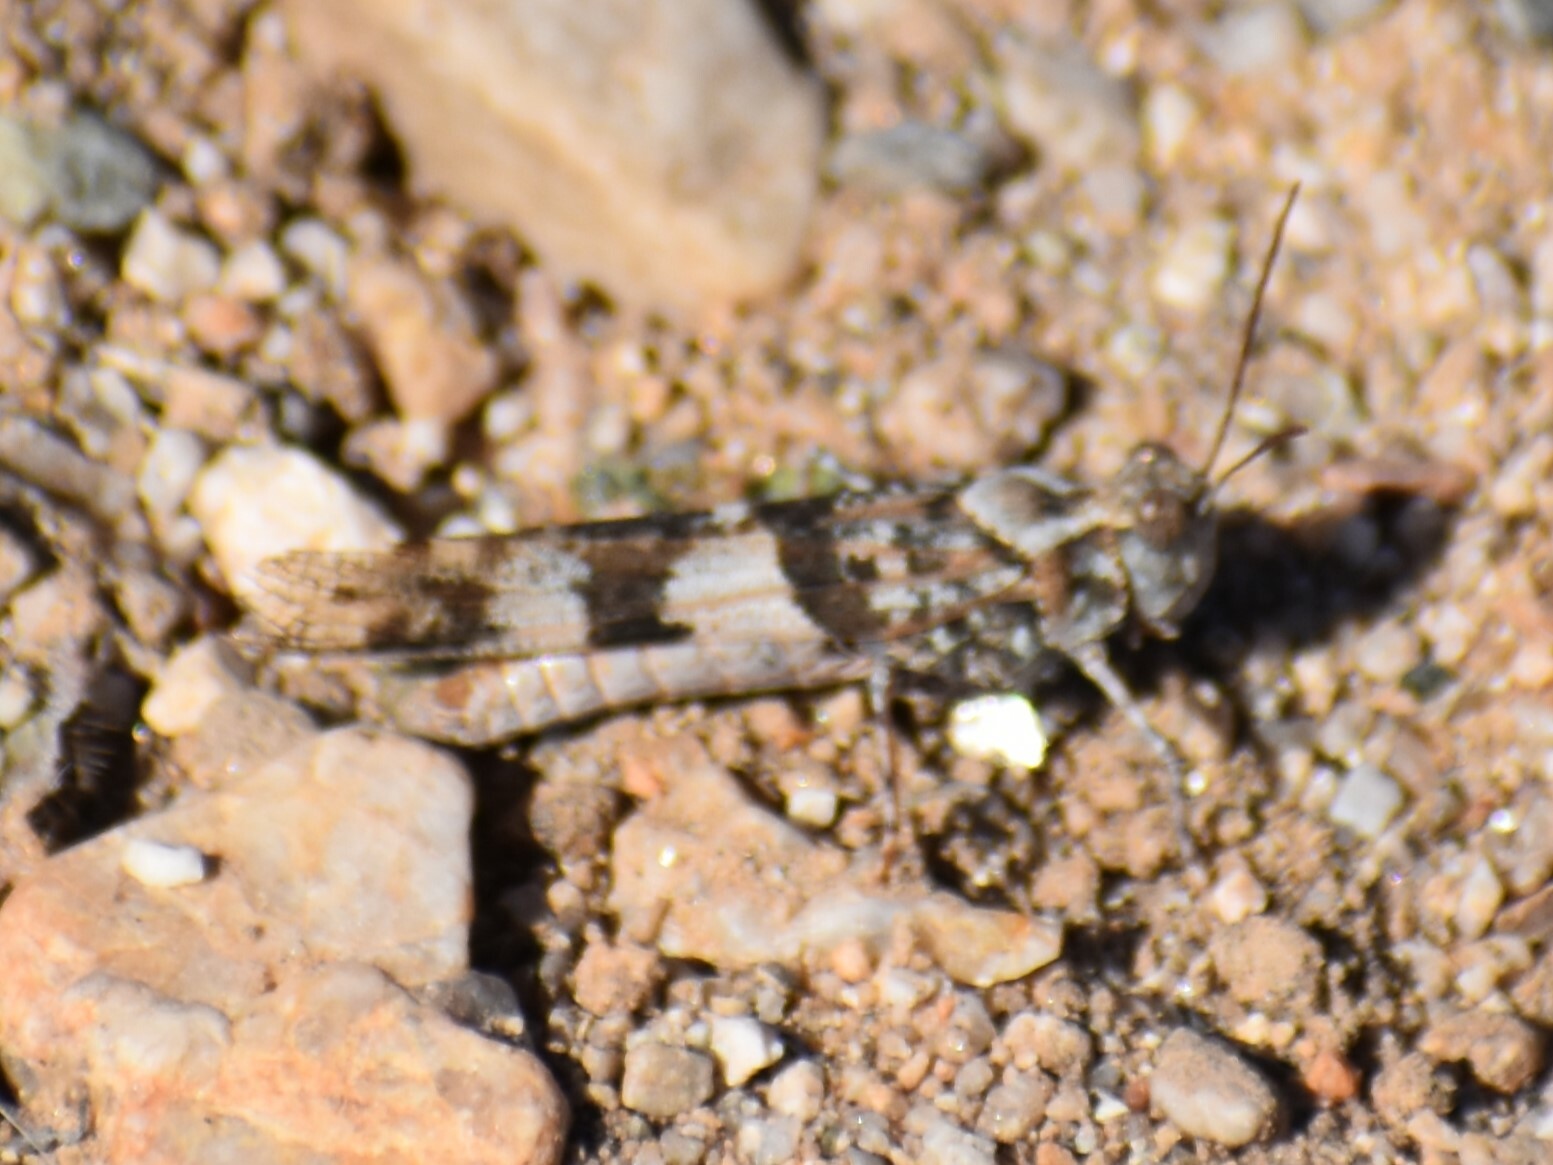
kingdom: Animalia
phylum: Arthropoda
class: Insecta
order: Orthoptera
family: Acrididae
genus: Trimerotropis
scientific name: Trimerotropis pallidipennis
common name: Pallid-winged grasshopper
